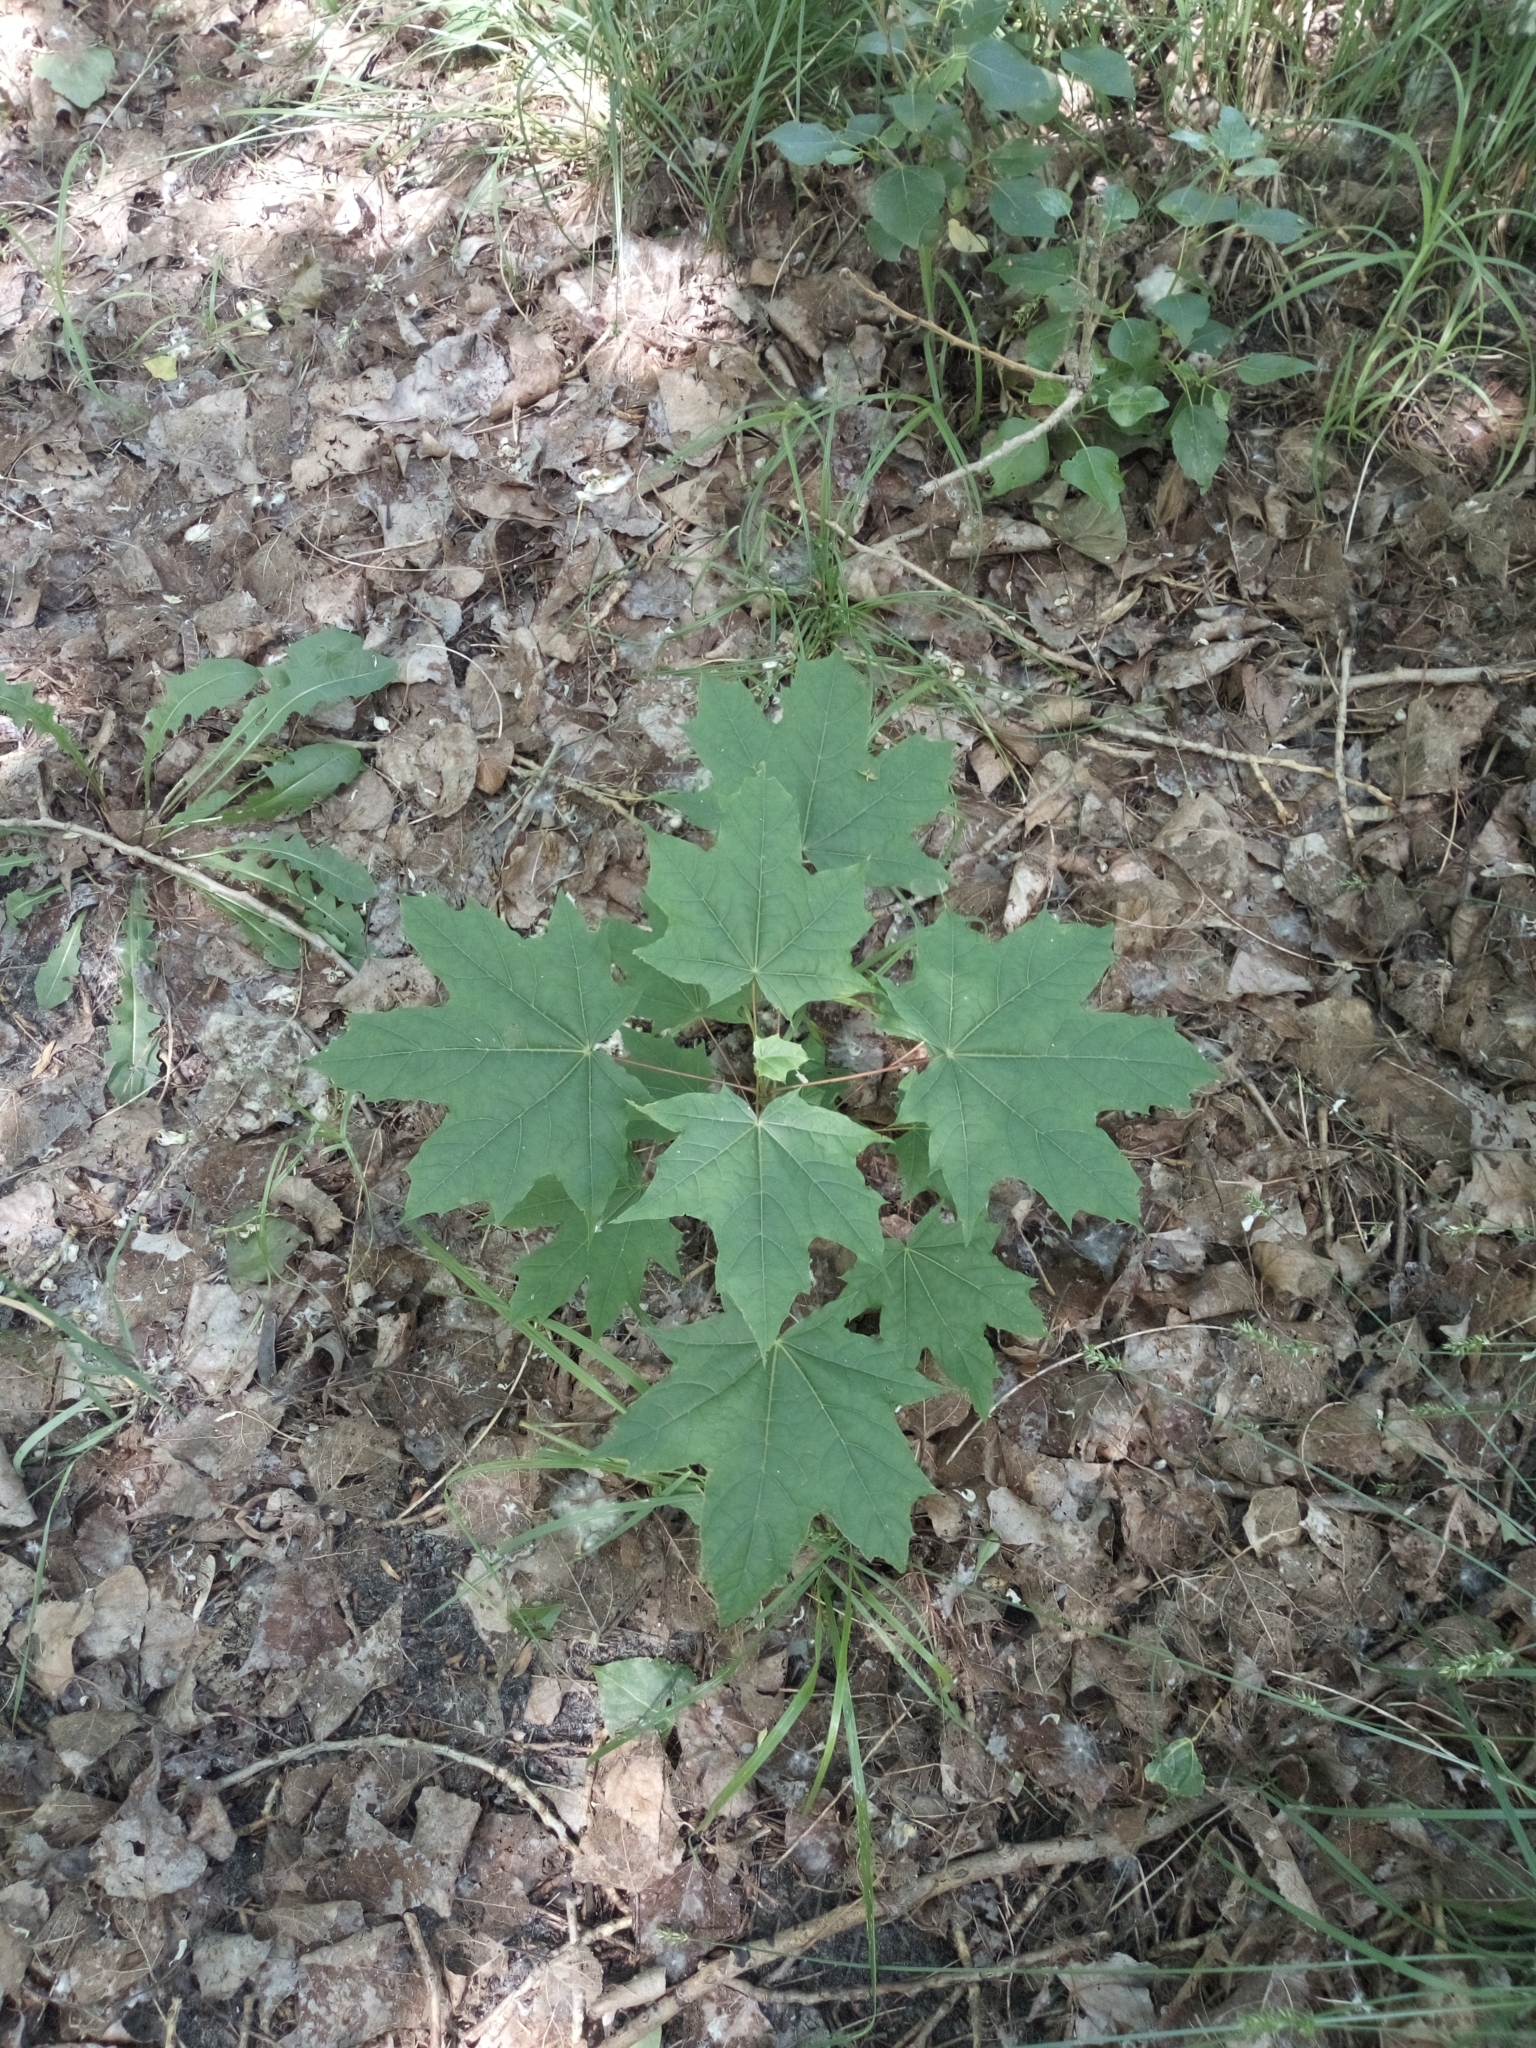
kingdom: Plantae
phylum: Tracheophyta
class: Magnoliopsida
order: Sapindales
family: Sapindaceae
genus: Acer
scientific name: Acer platanoides
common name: Norway maple
